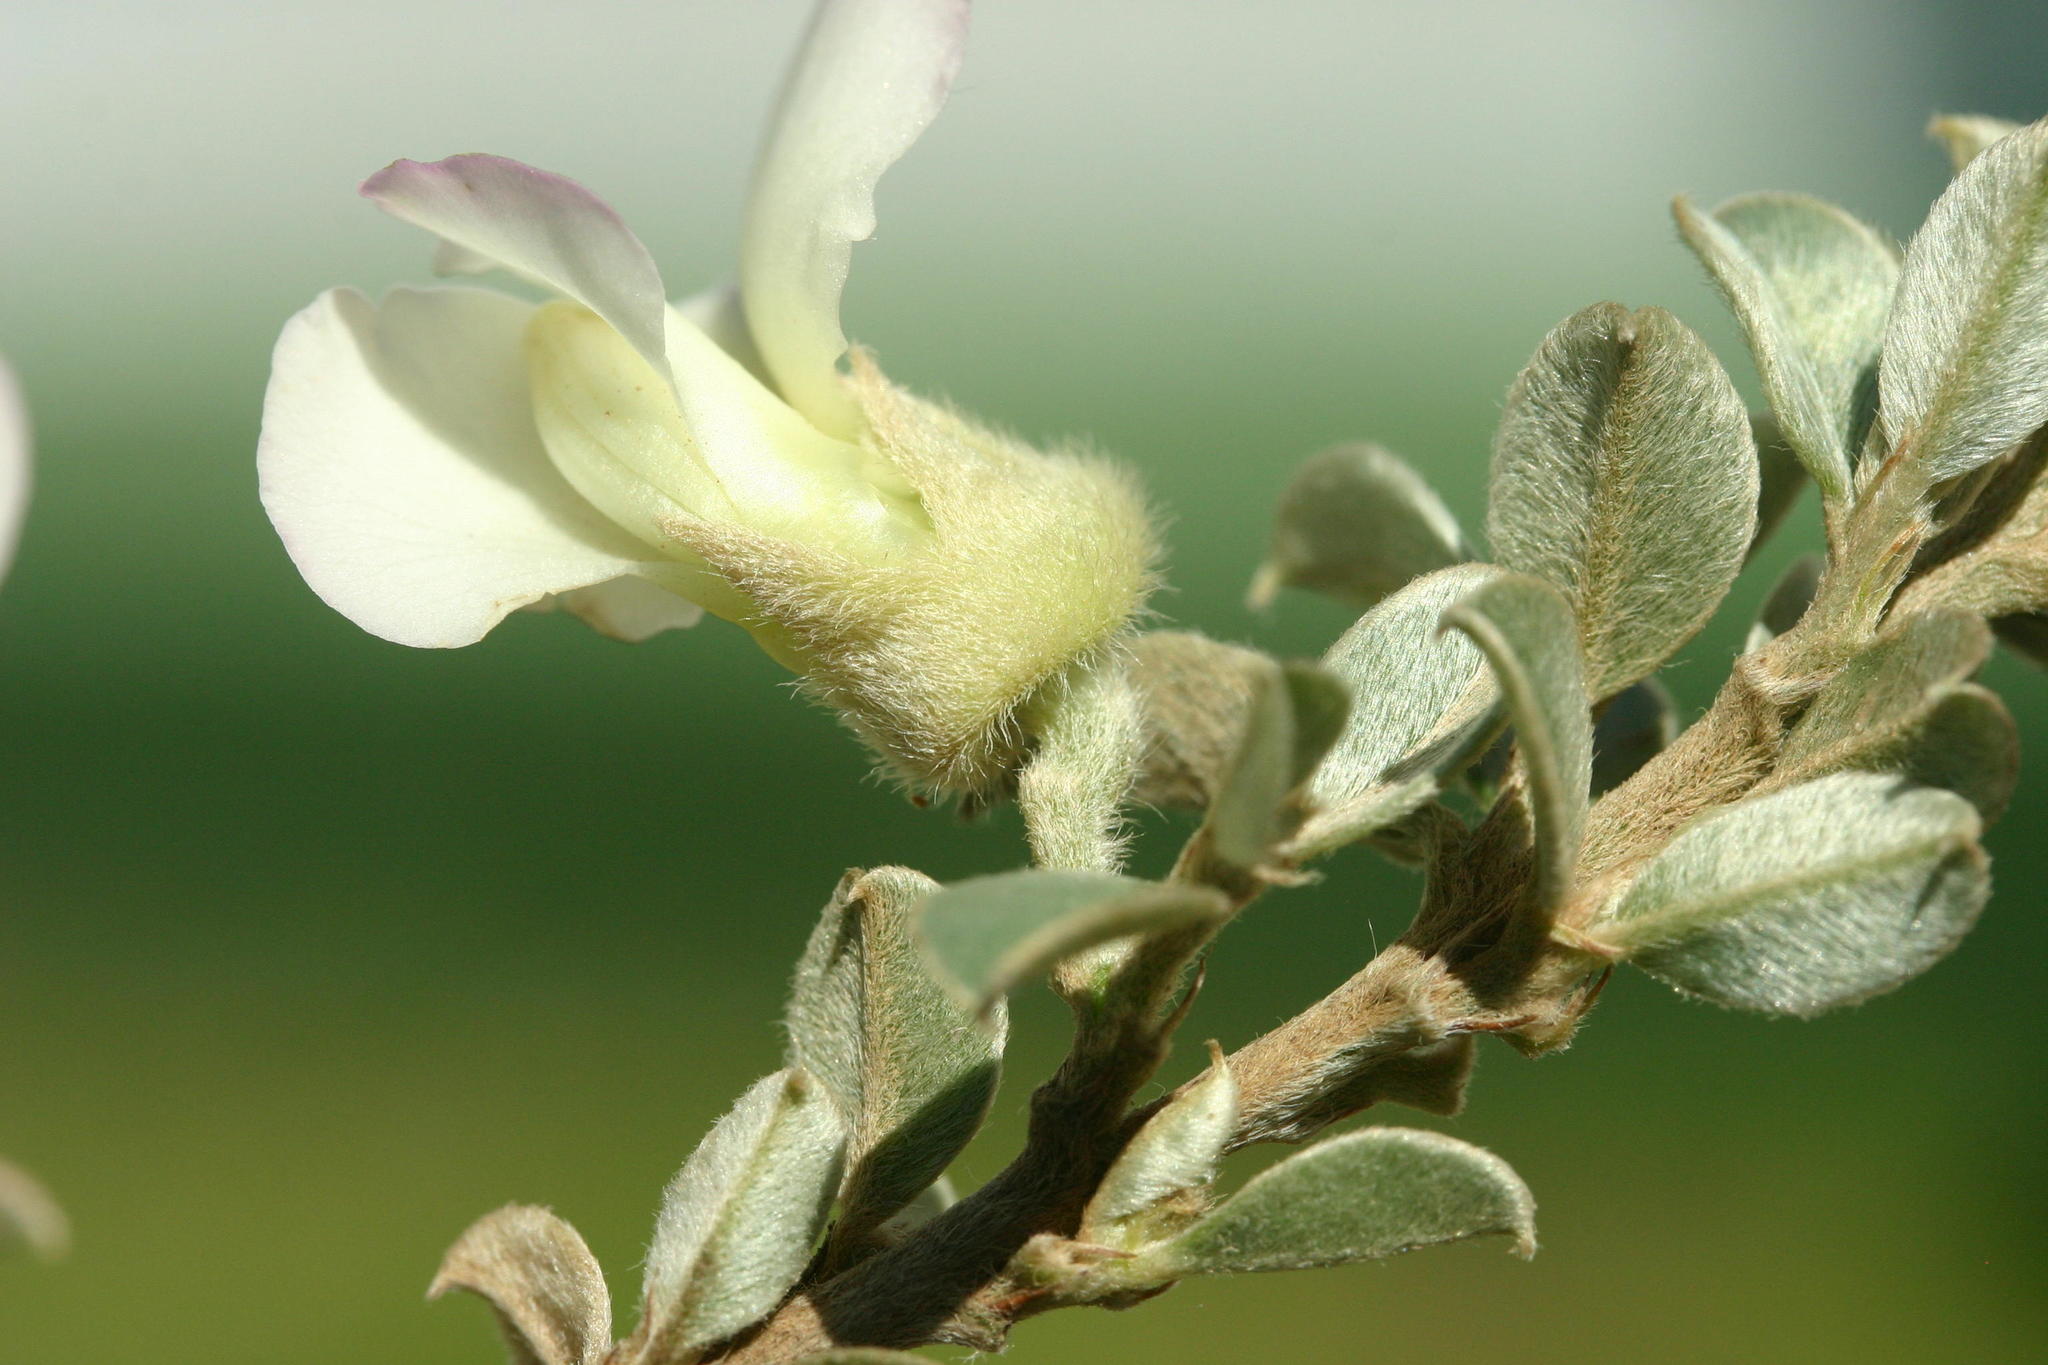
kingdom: Plantae
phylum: Tracheophyta
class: Magnoliopsida
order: Fabales
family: Fabaceae
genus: Podalyria
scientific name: Podalyria myrtillifolia
